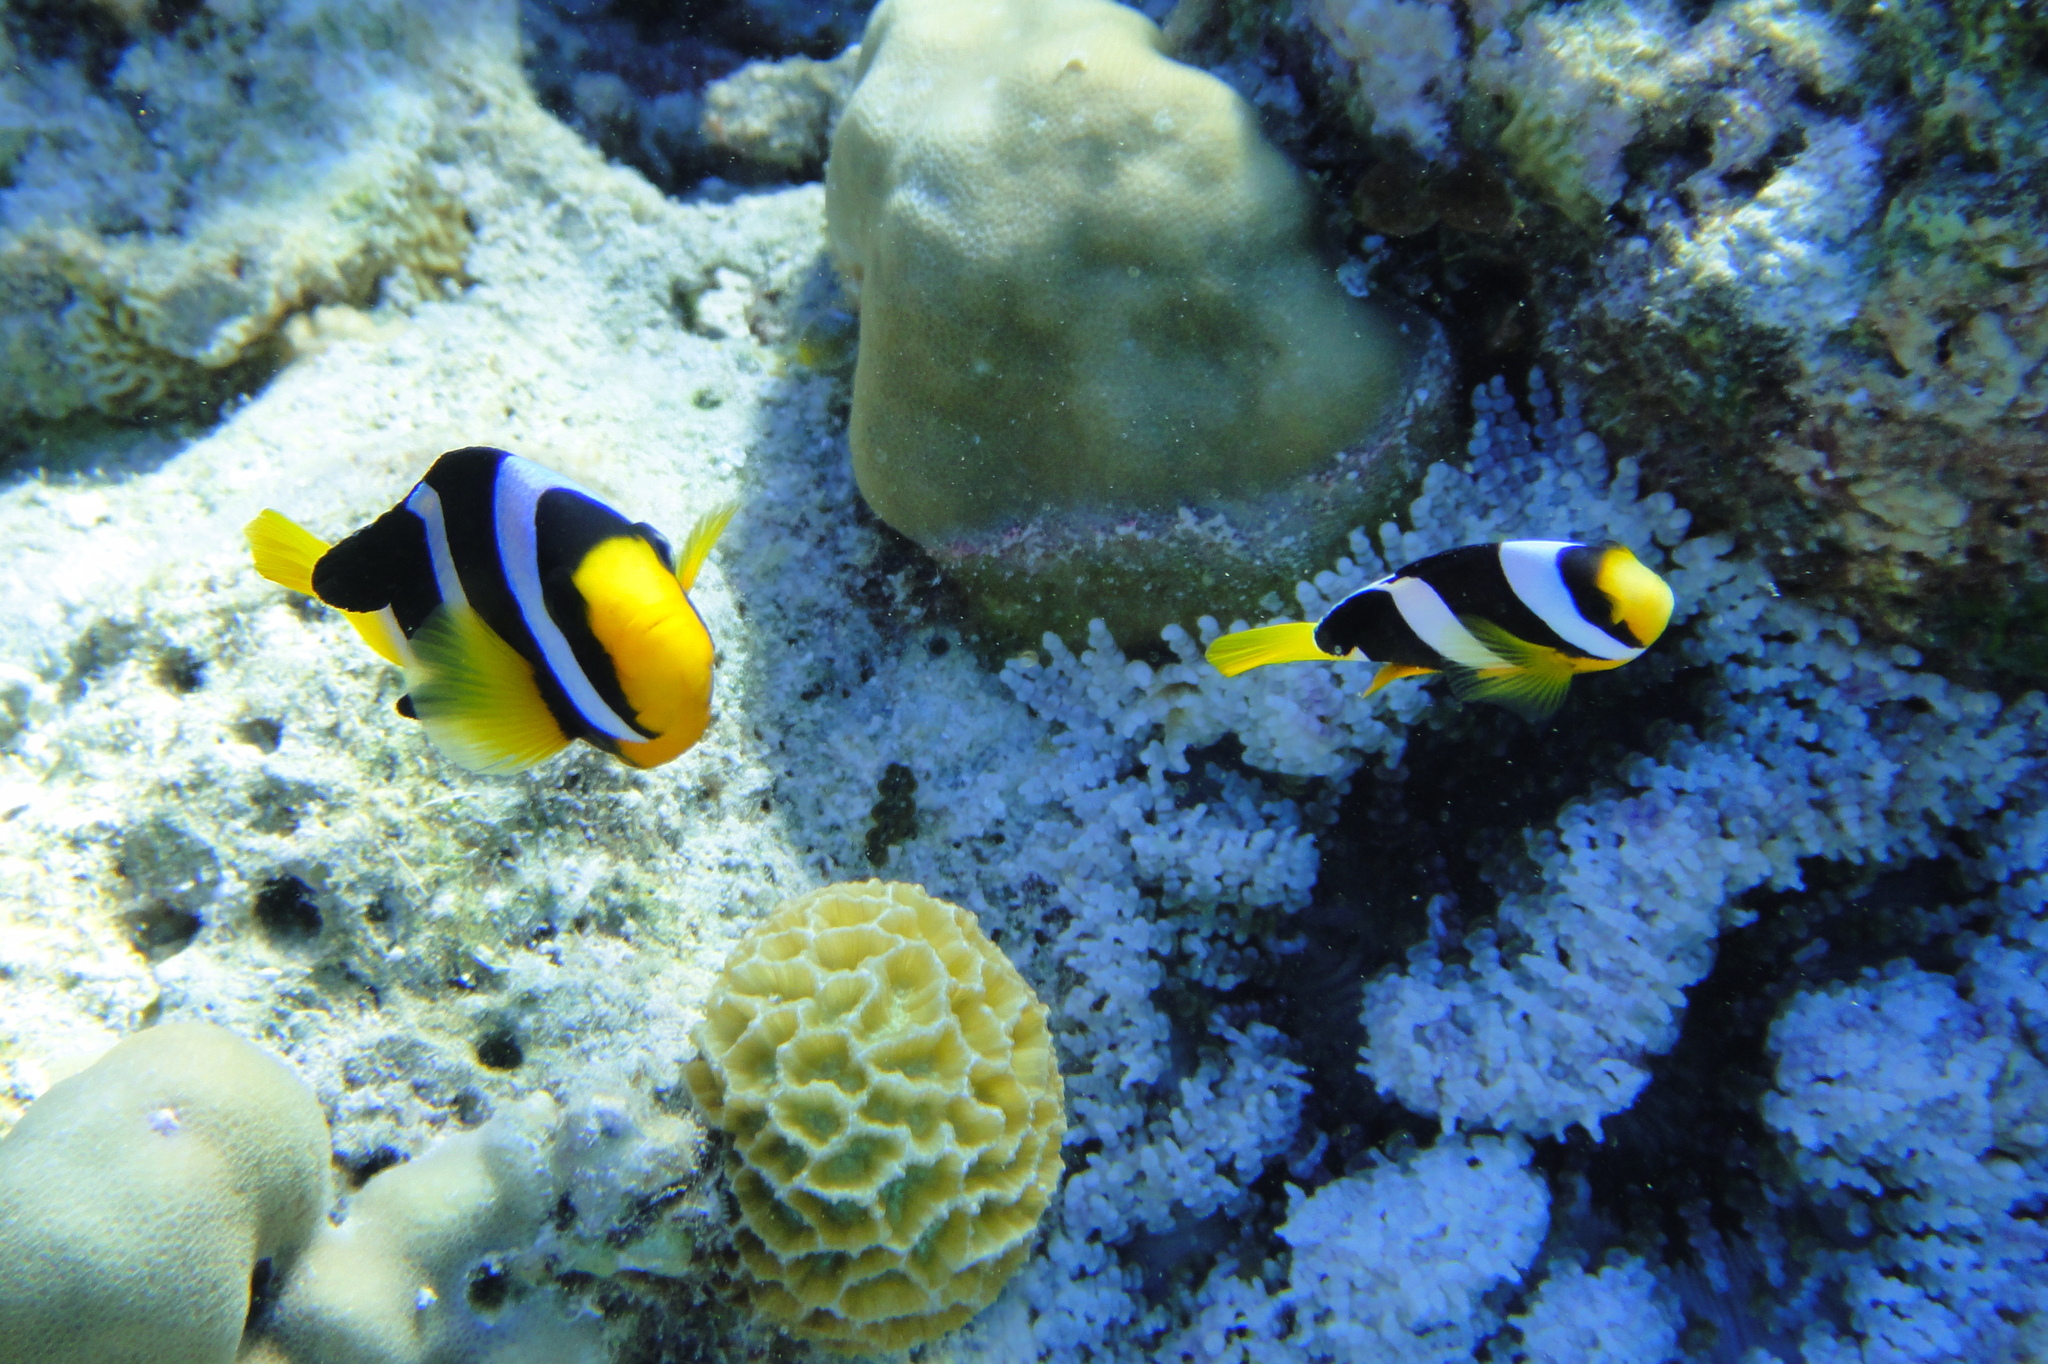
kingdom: Animalia
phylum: Chordata
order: Perciformes
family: Pomacentridae
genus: Amphiprion
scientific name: Amphiprion clarkii
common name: Clark's anemonefish
